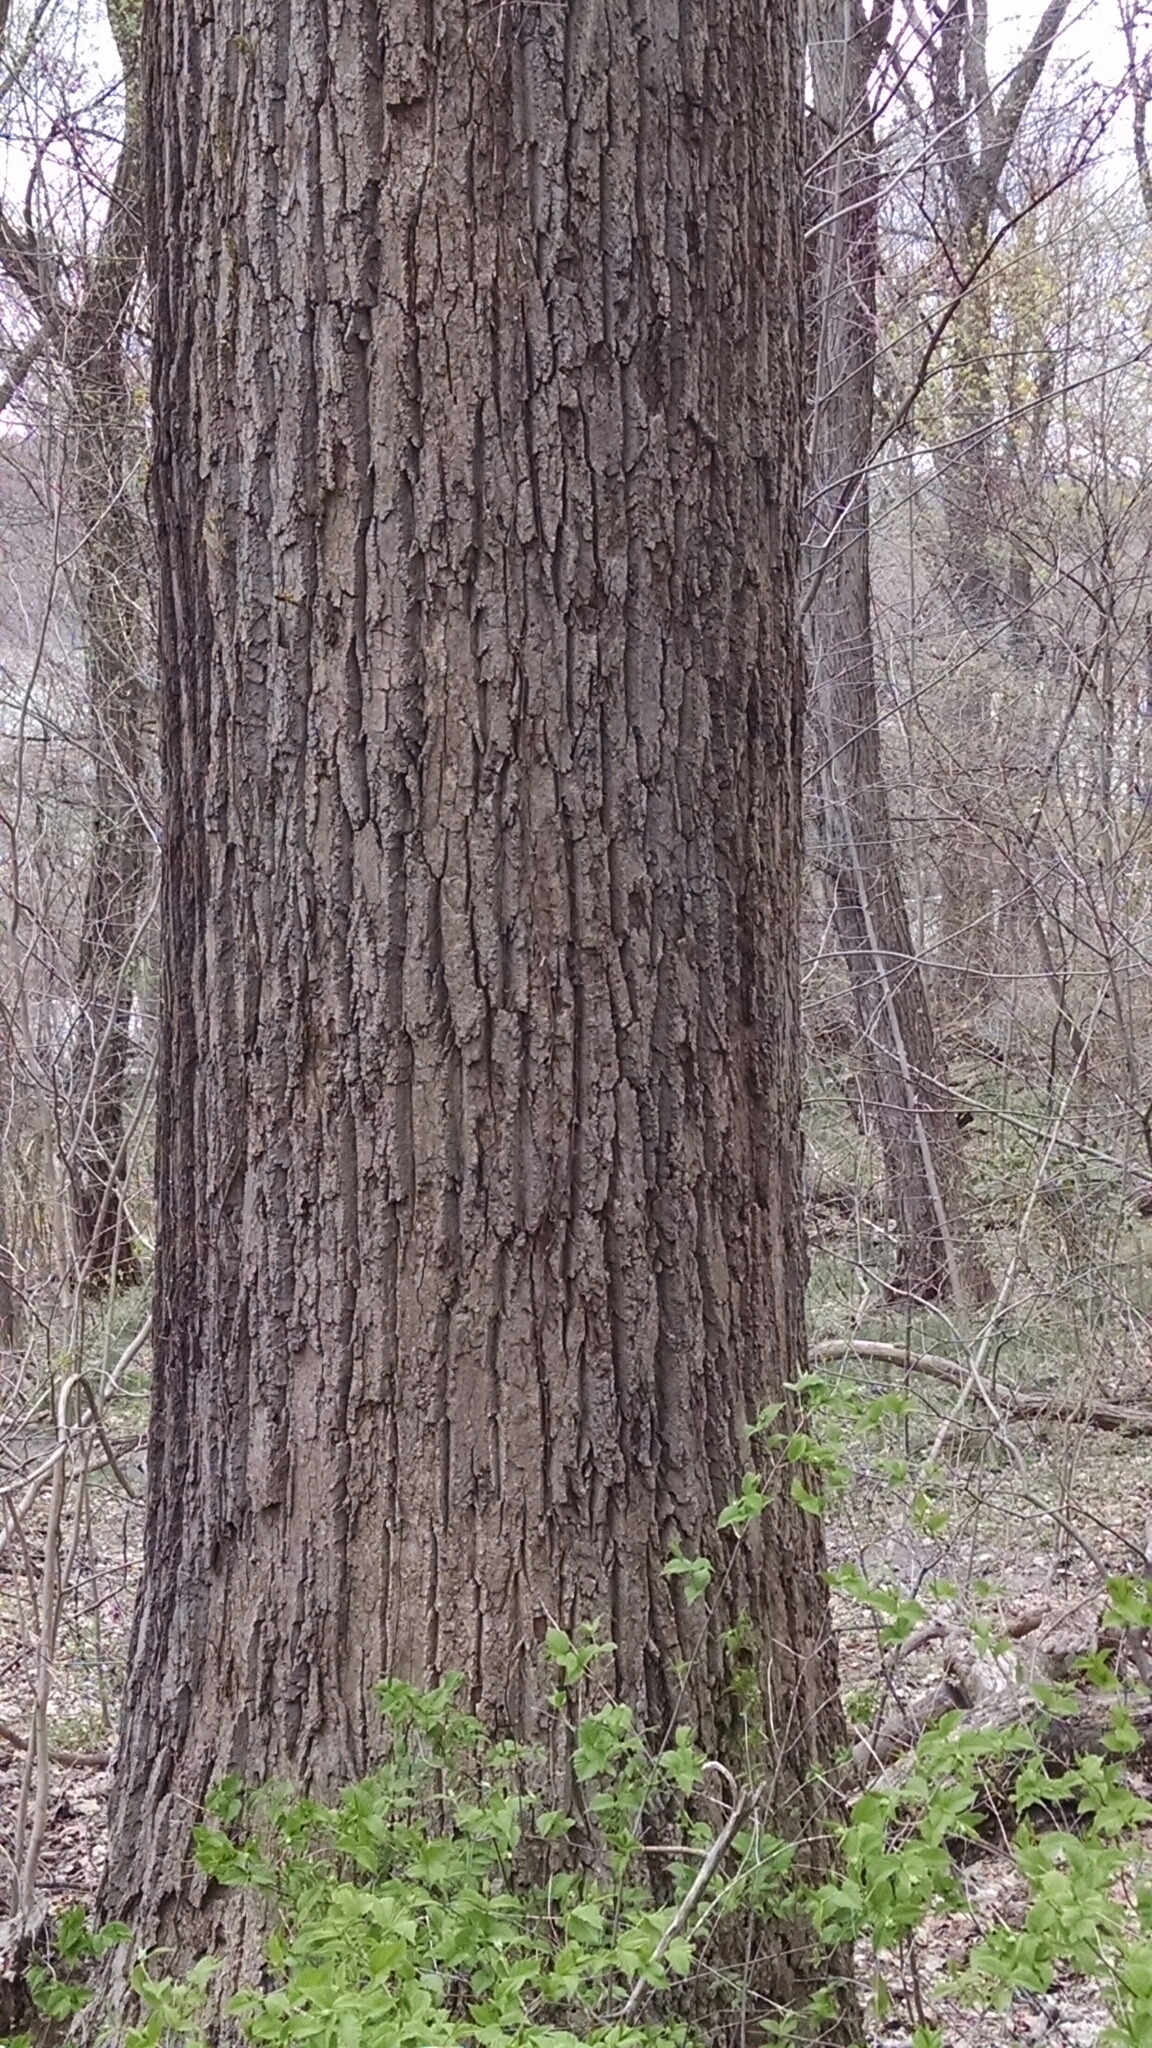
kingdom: Plantae
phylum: Tracheophyta
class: Magnoliopsida
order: Magnoliales
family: Magnoliaceae
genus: Liriodendron
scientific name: Liriodendron tulipifera
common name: Tulip tree
